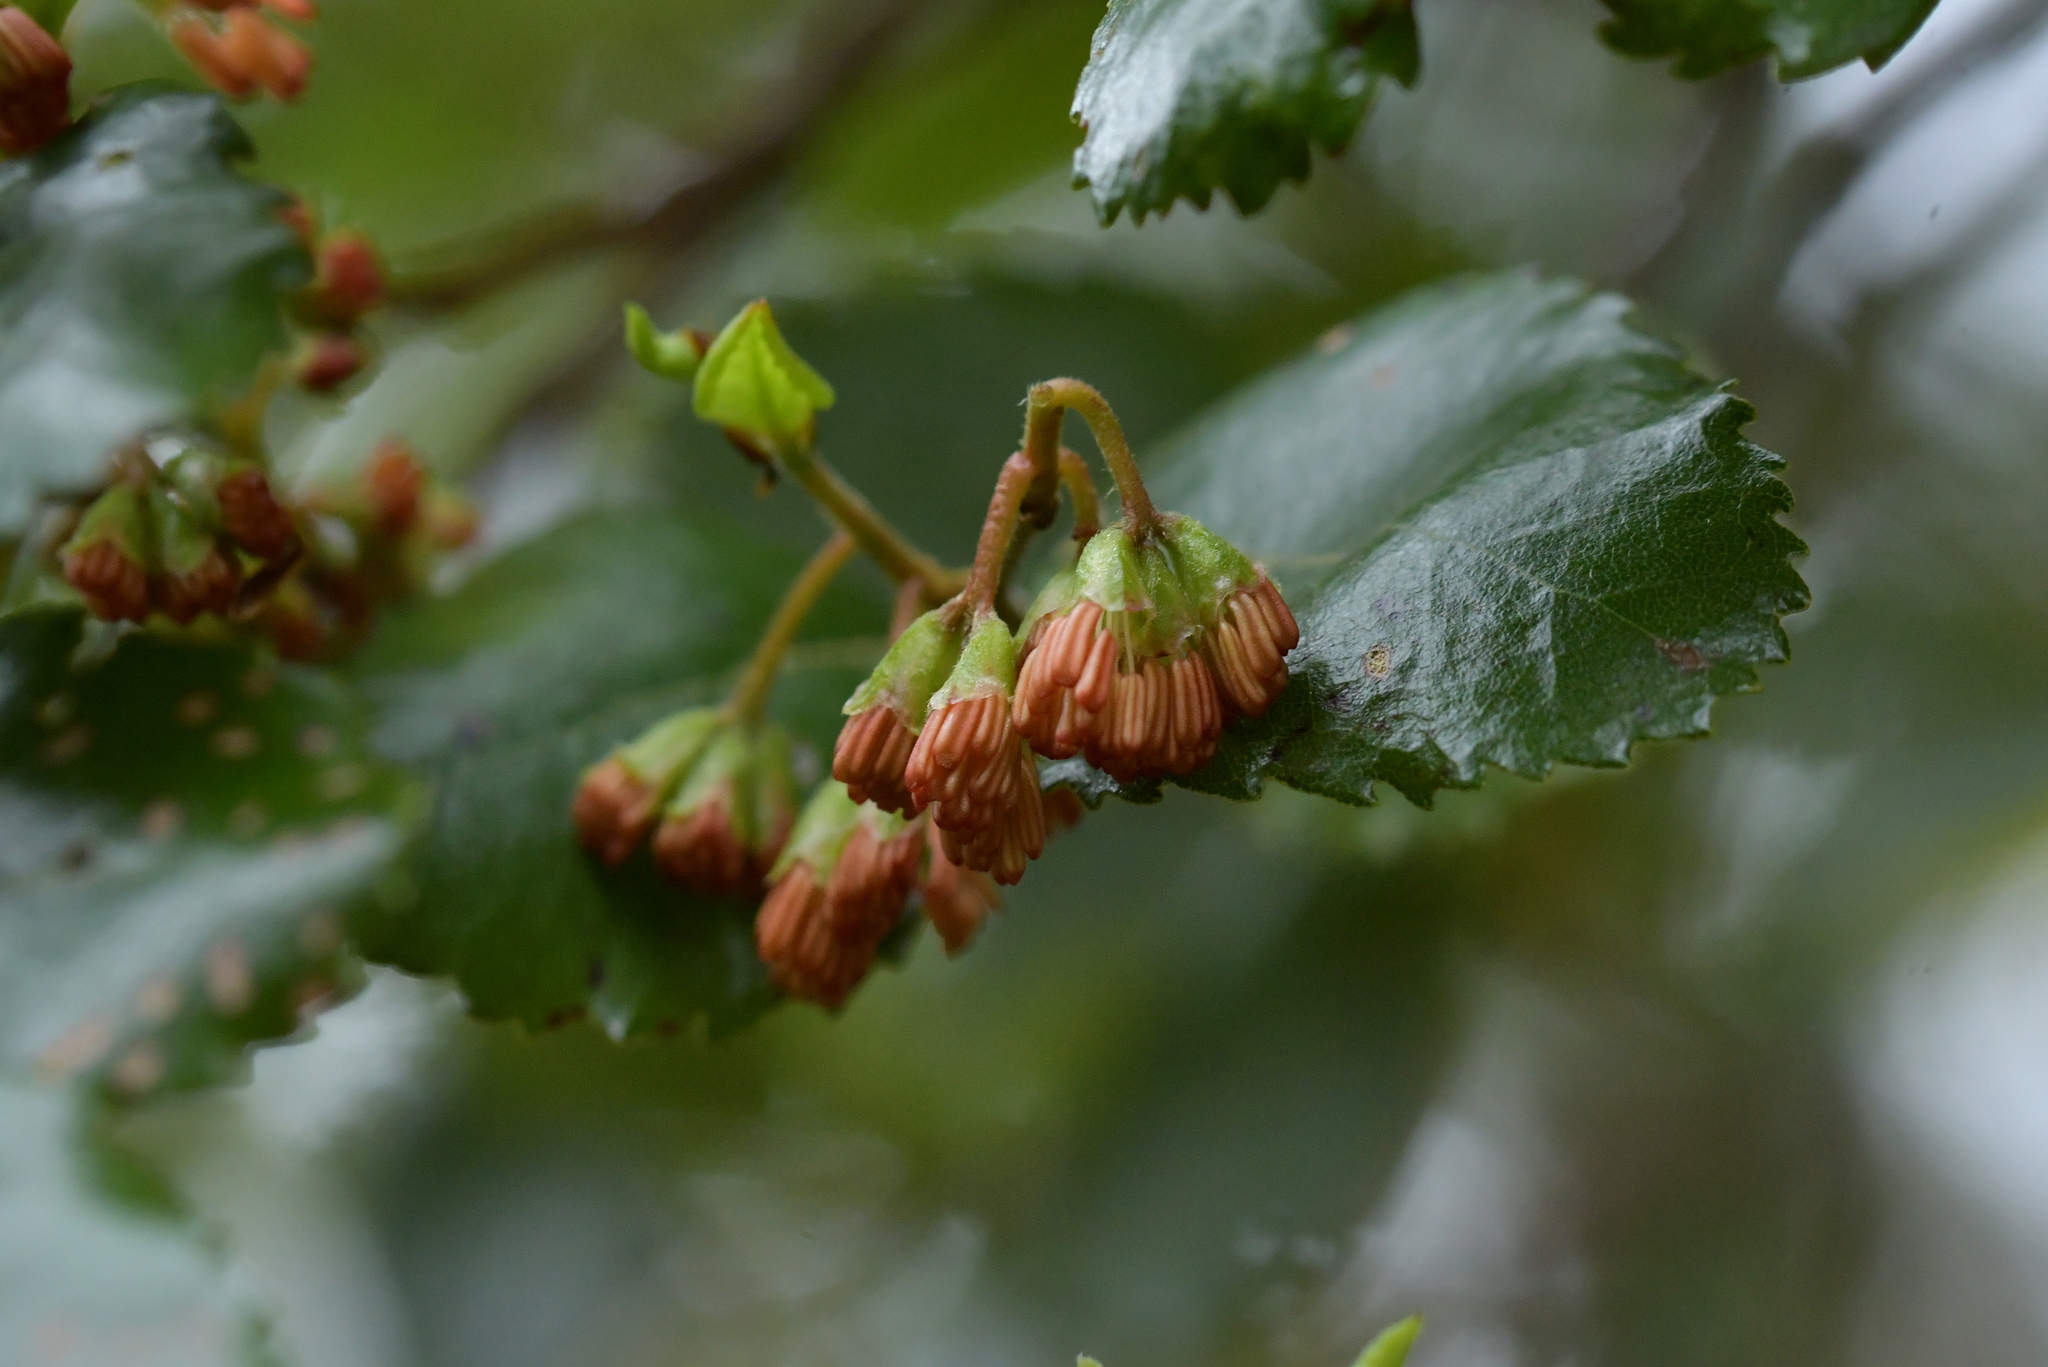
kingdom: Plantae
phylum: Tracheophyta
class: Magnoliopsida
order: Fagales
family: Nothofagaceae
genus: Nothofagus
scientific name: Nothofagus truncata
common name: Hard beech
